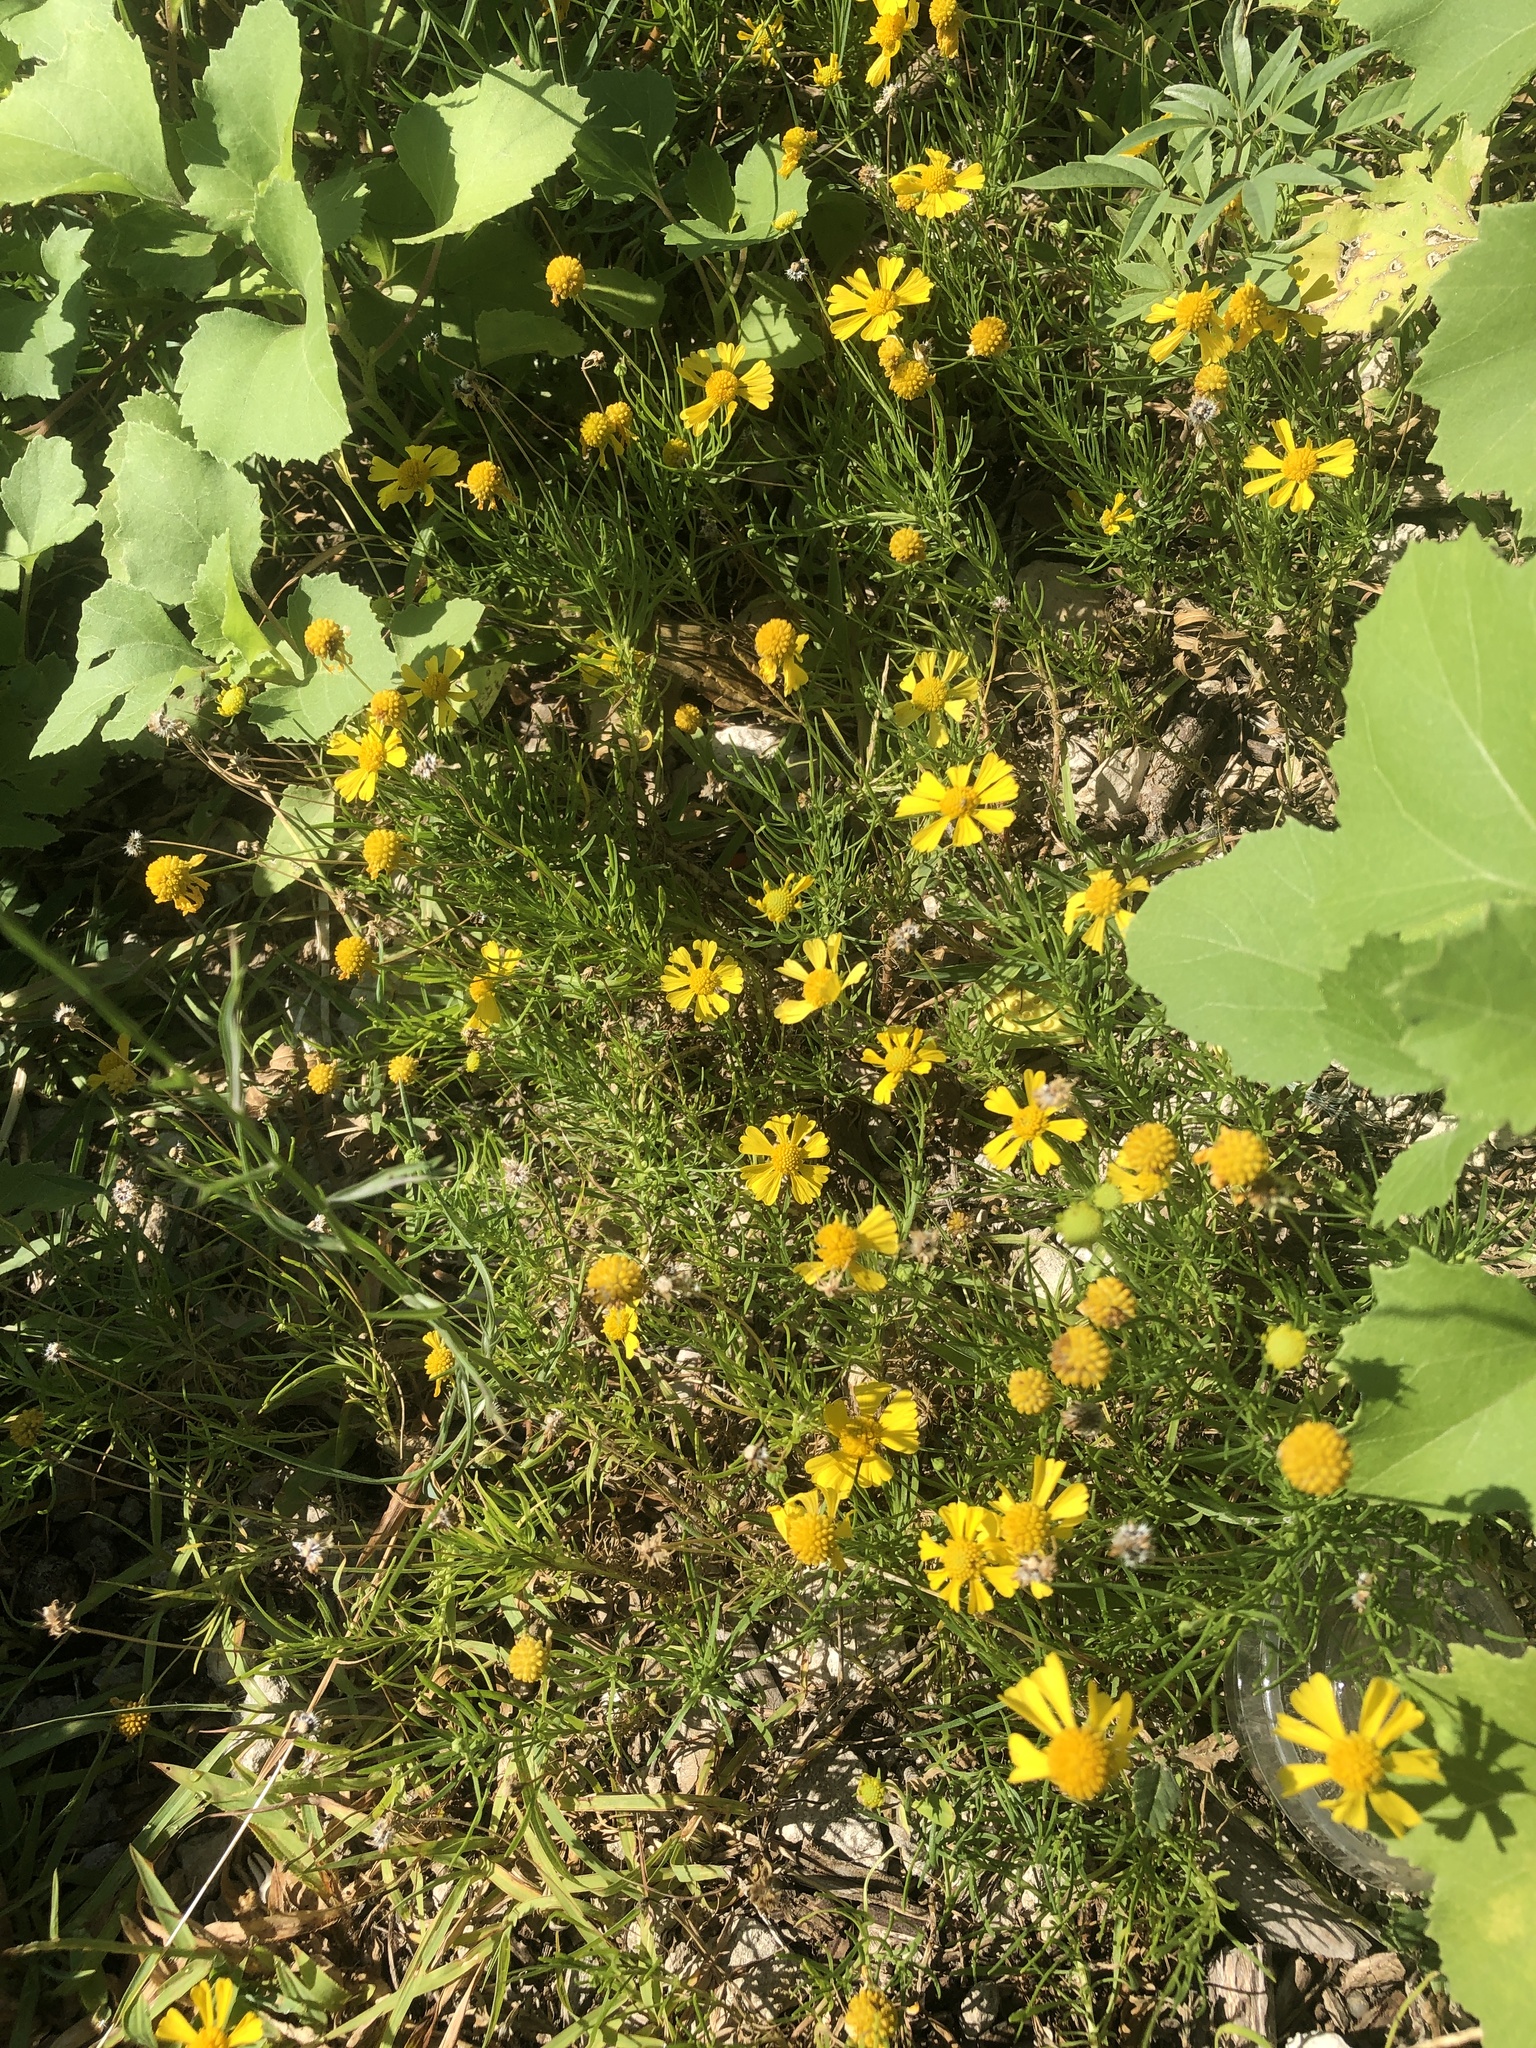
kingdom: Plantae
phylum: Tracheophyta
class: Magnoliopsida
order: Asterales
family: Asteraceae
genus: Helenium
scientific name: Helenium amarum
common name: Bitter sneezeweed
